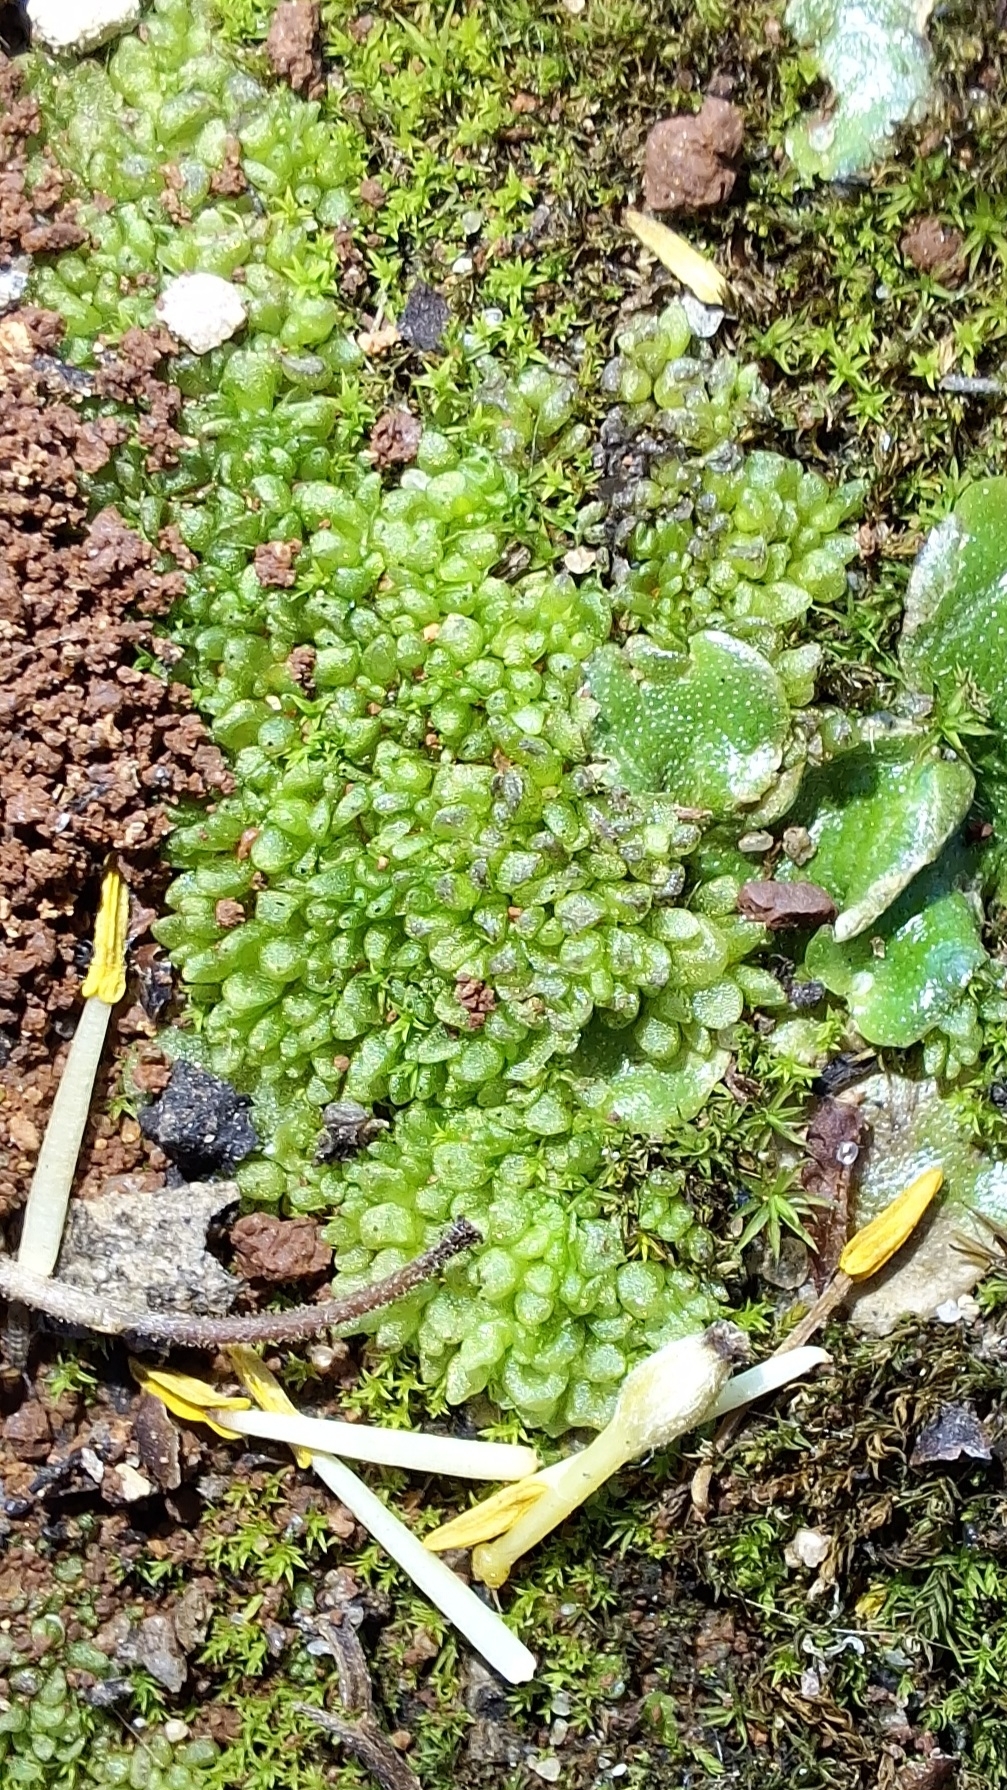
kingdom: Plantae
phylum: Marchantiophyta
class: Marchantiopsida
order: Sphaerocarpales
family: Sphaerocarpaceae
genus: Sphaerocarpos
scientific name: Sphaerocarpos texanus
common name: Texas balloonwort
